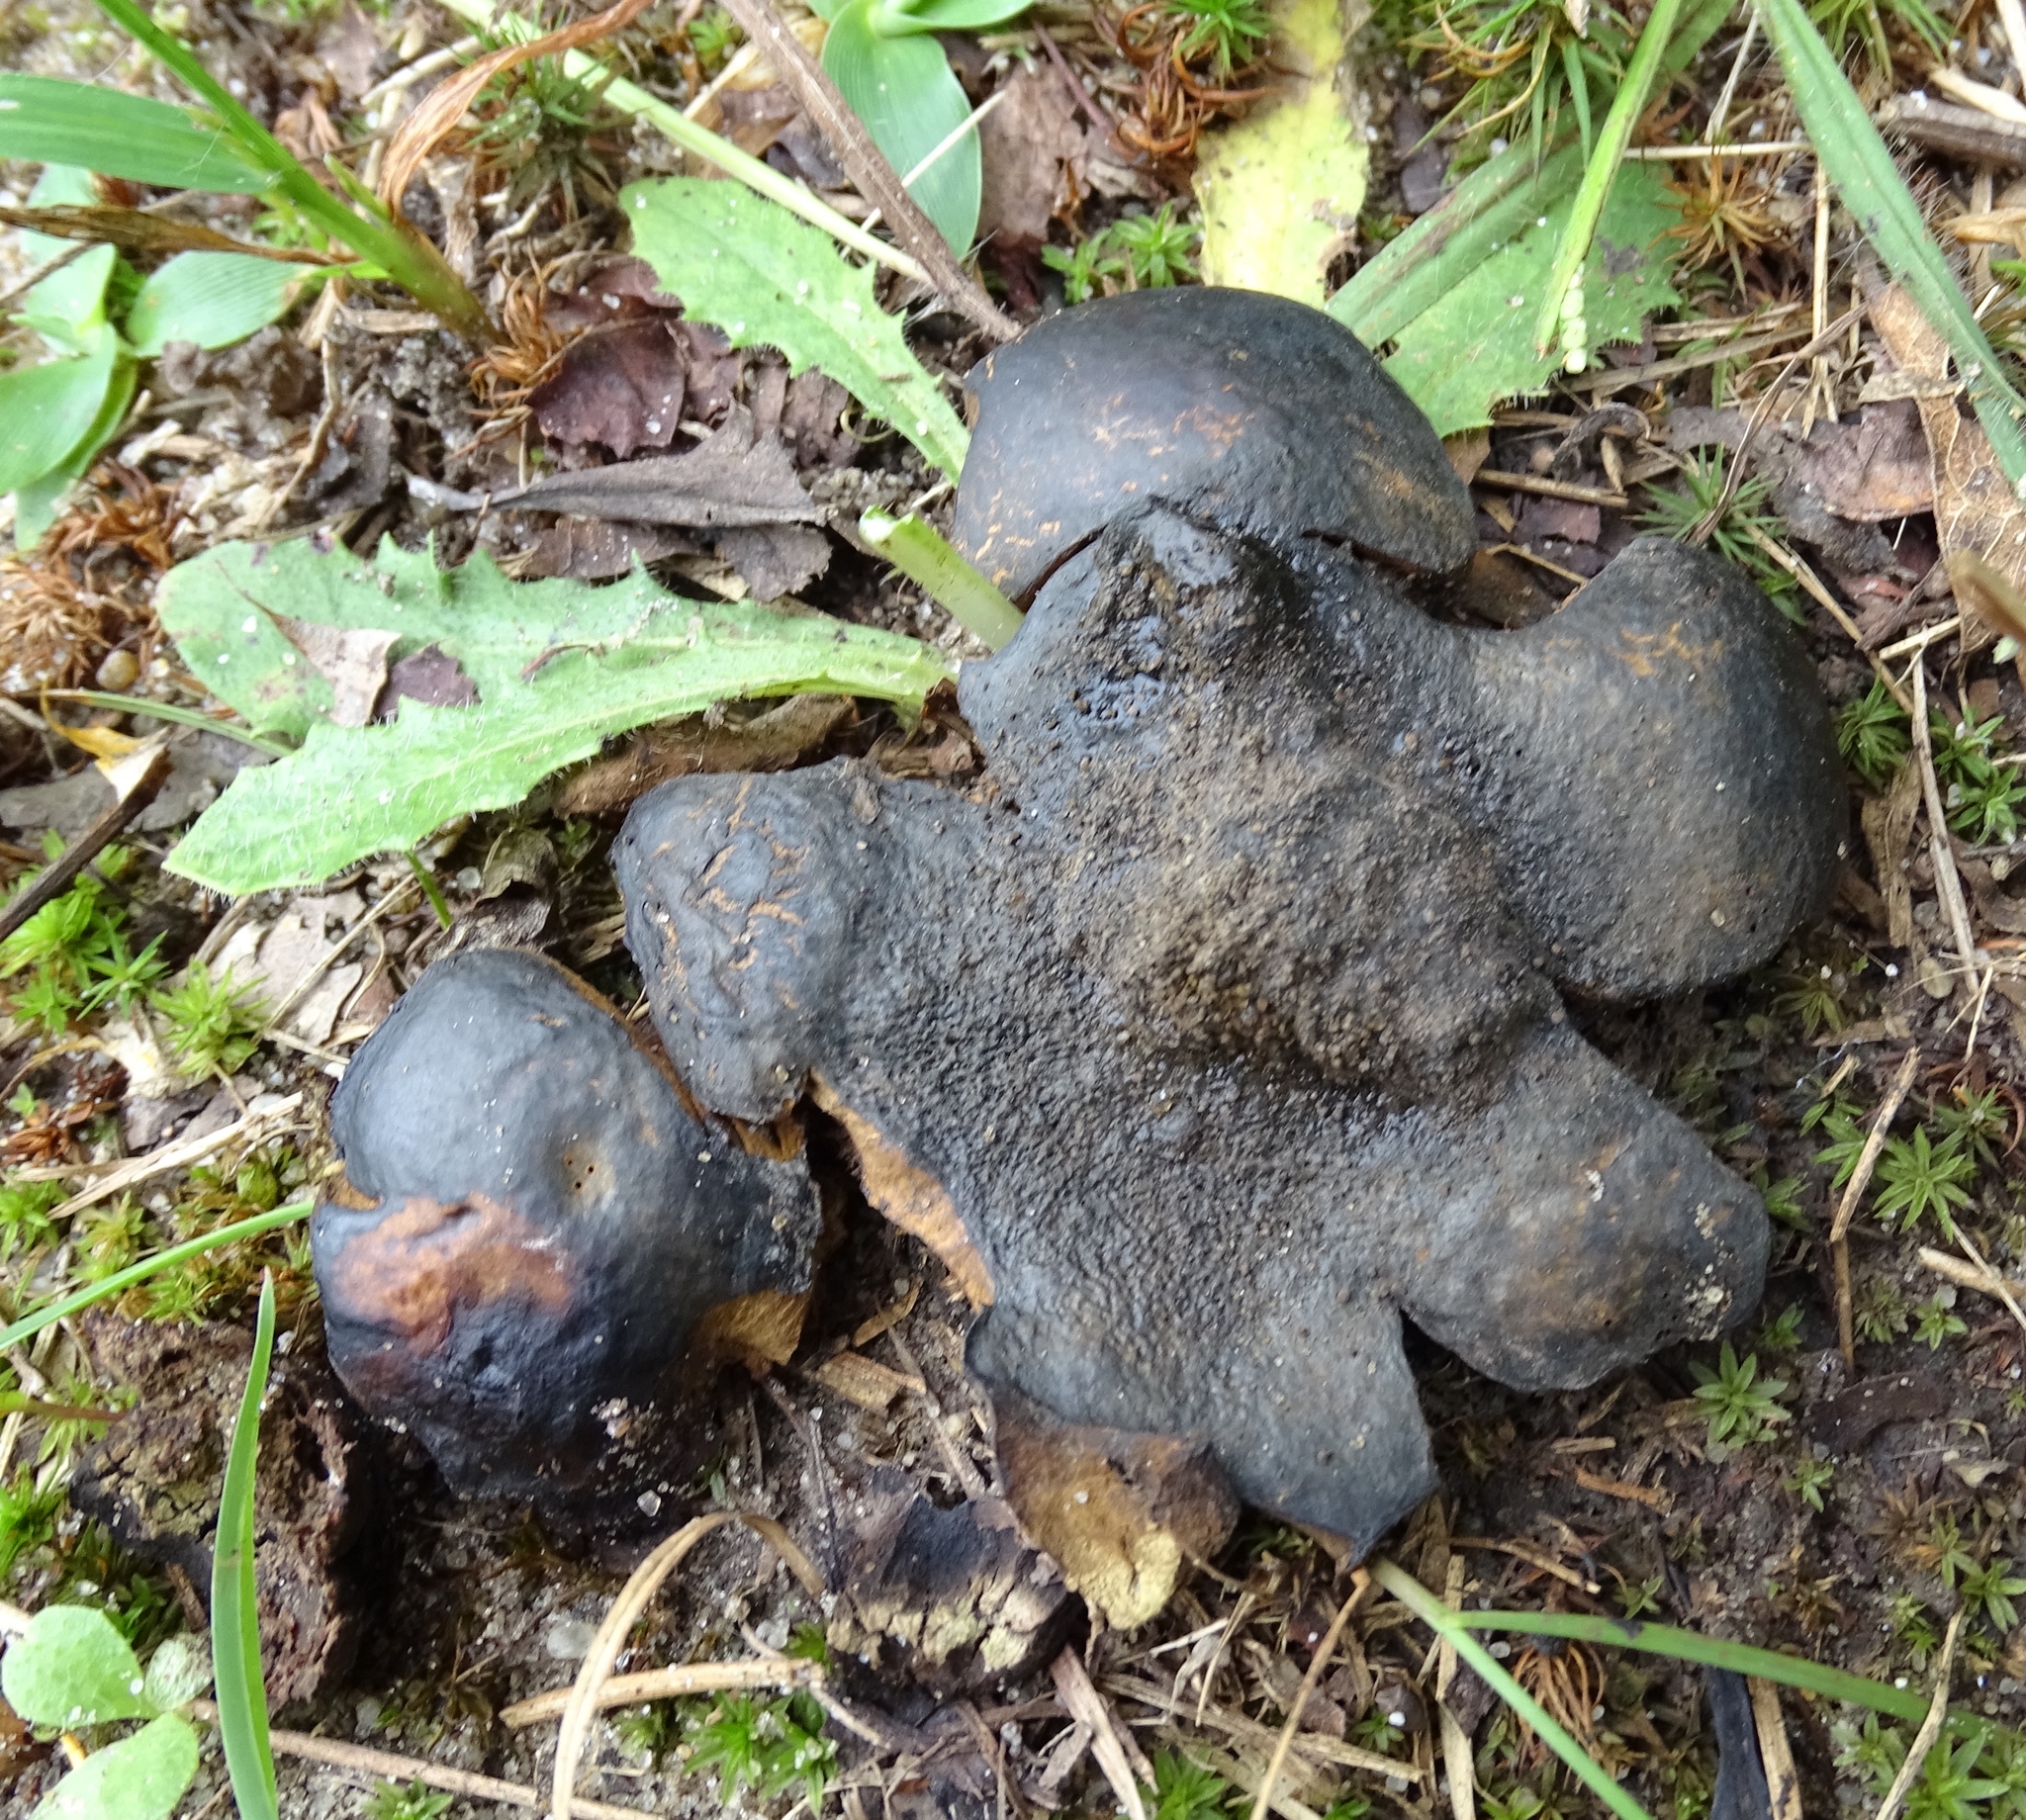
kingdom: Fungi
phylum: Basidiomycota
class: Agaricomycetes
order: Boletales
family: Sclerodermataceae
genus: Scleroderma
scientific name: Scleroderma polyrhizum
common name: Many-rooted earthball
